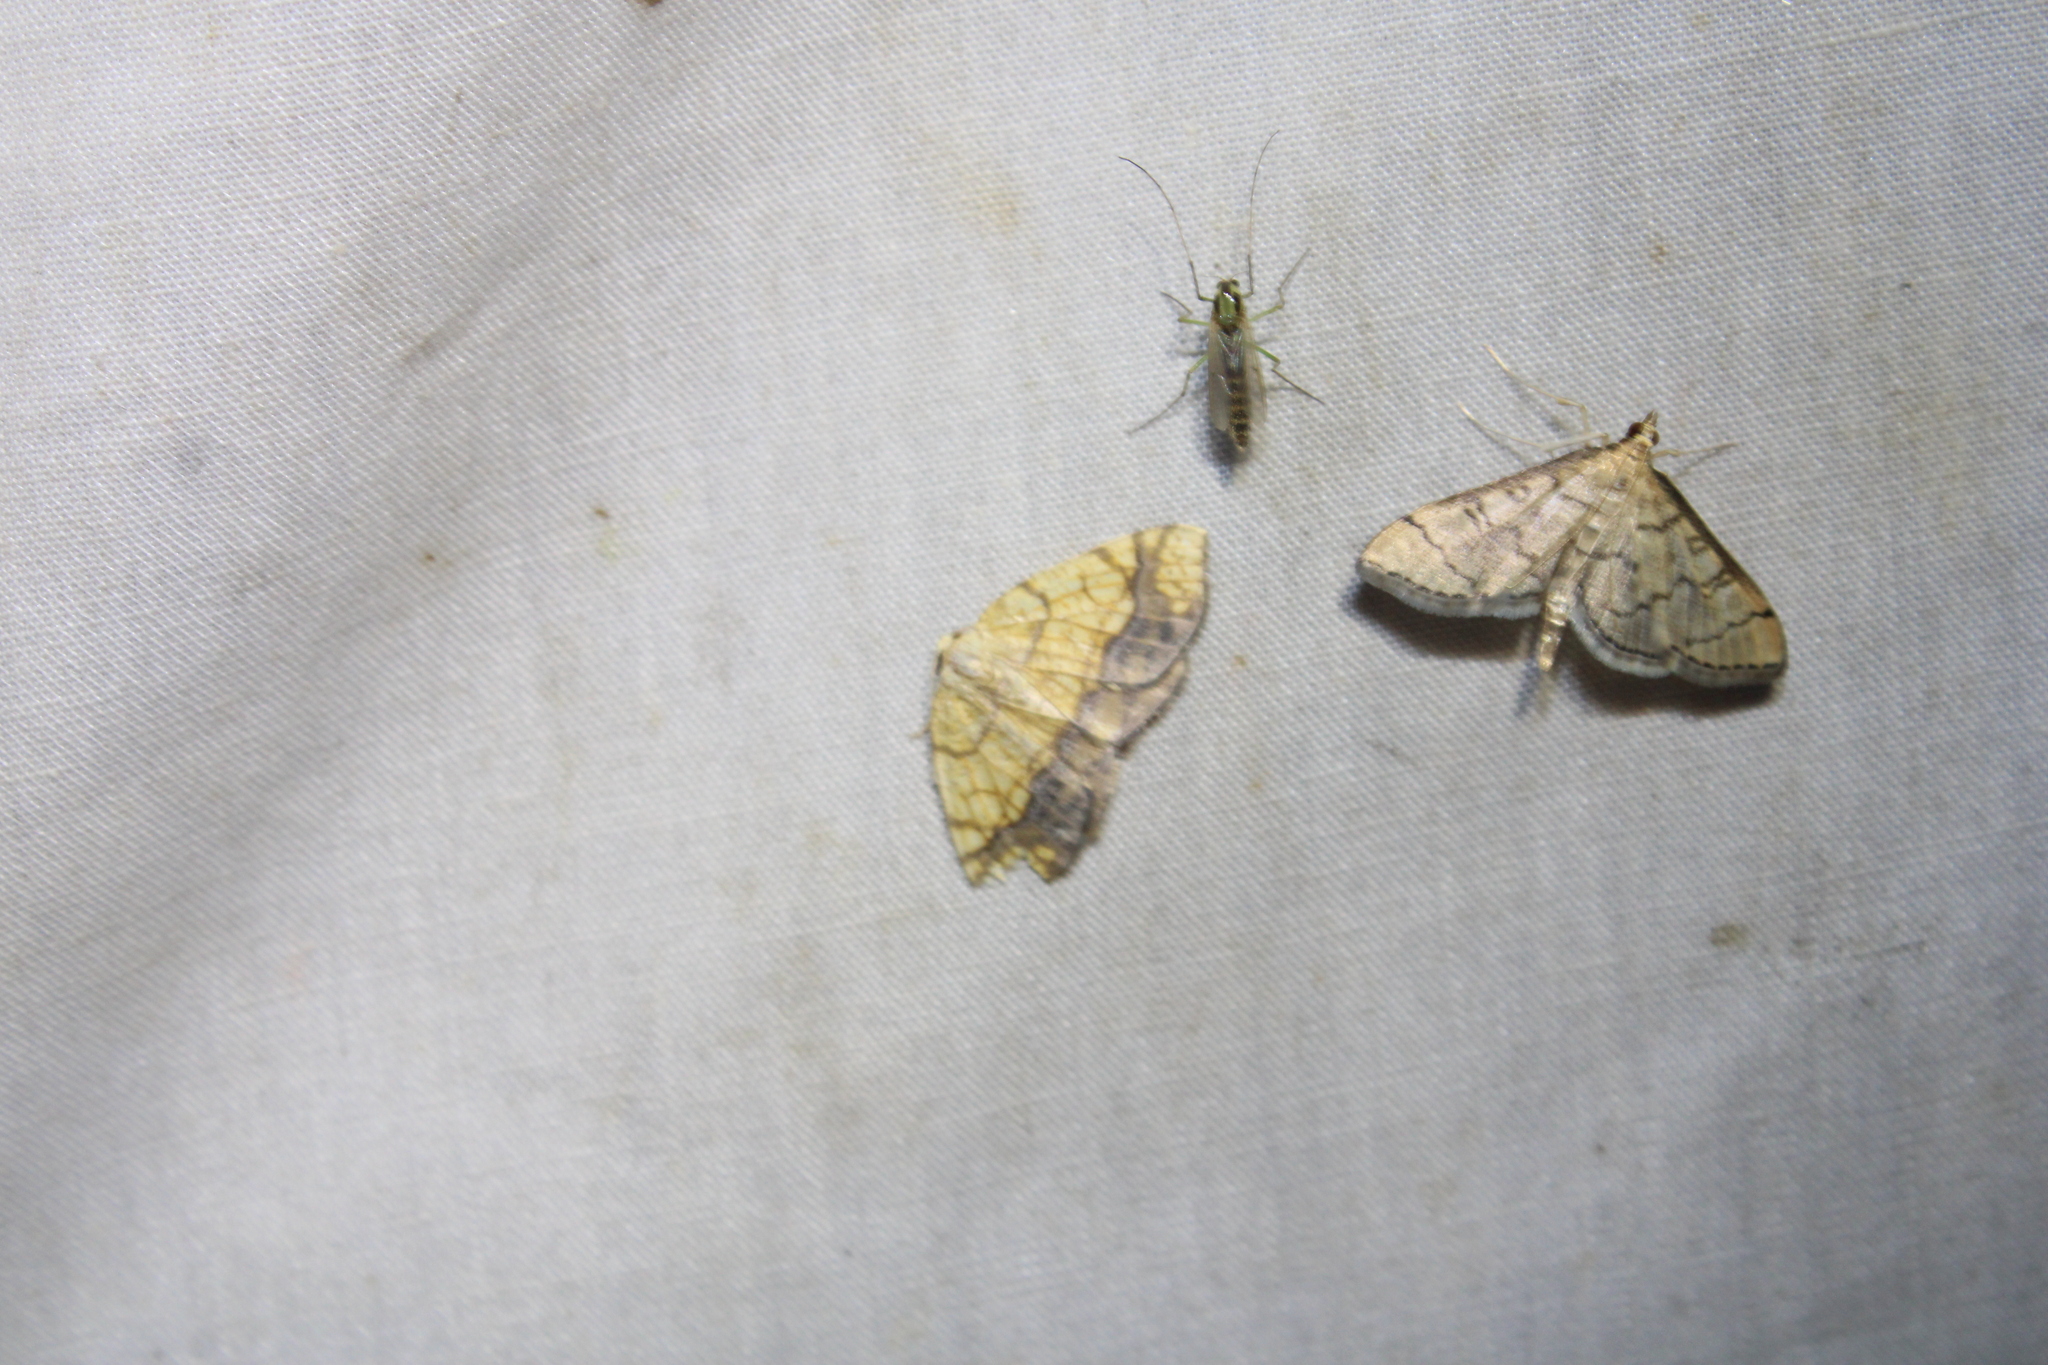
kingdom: Animalia
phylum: Arthropoda
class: Insecta
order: Lepidoptera
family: Geometridae
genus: Nematocampa
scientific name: Nematocampa resistaria
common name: Horned spanworm moth
